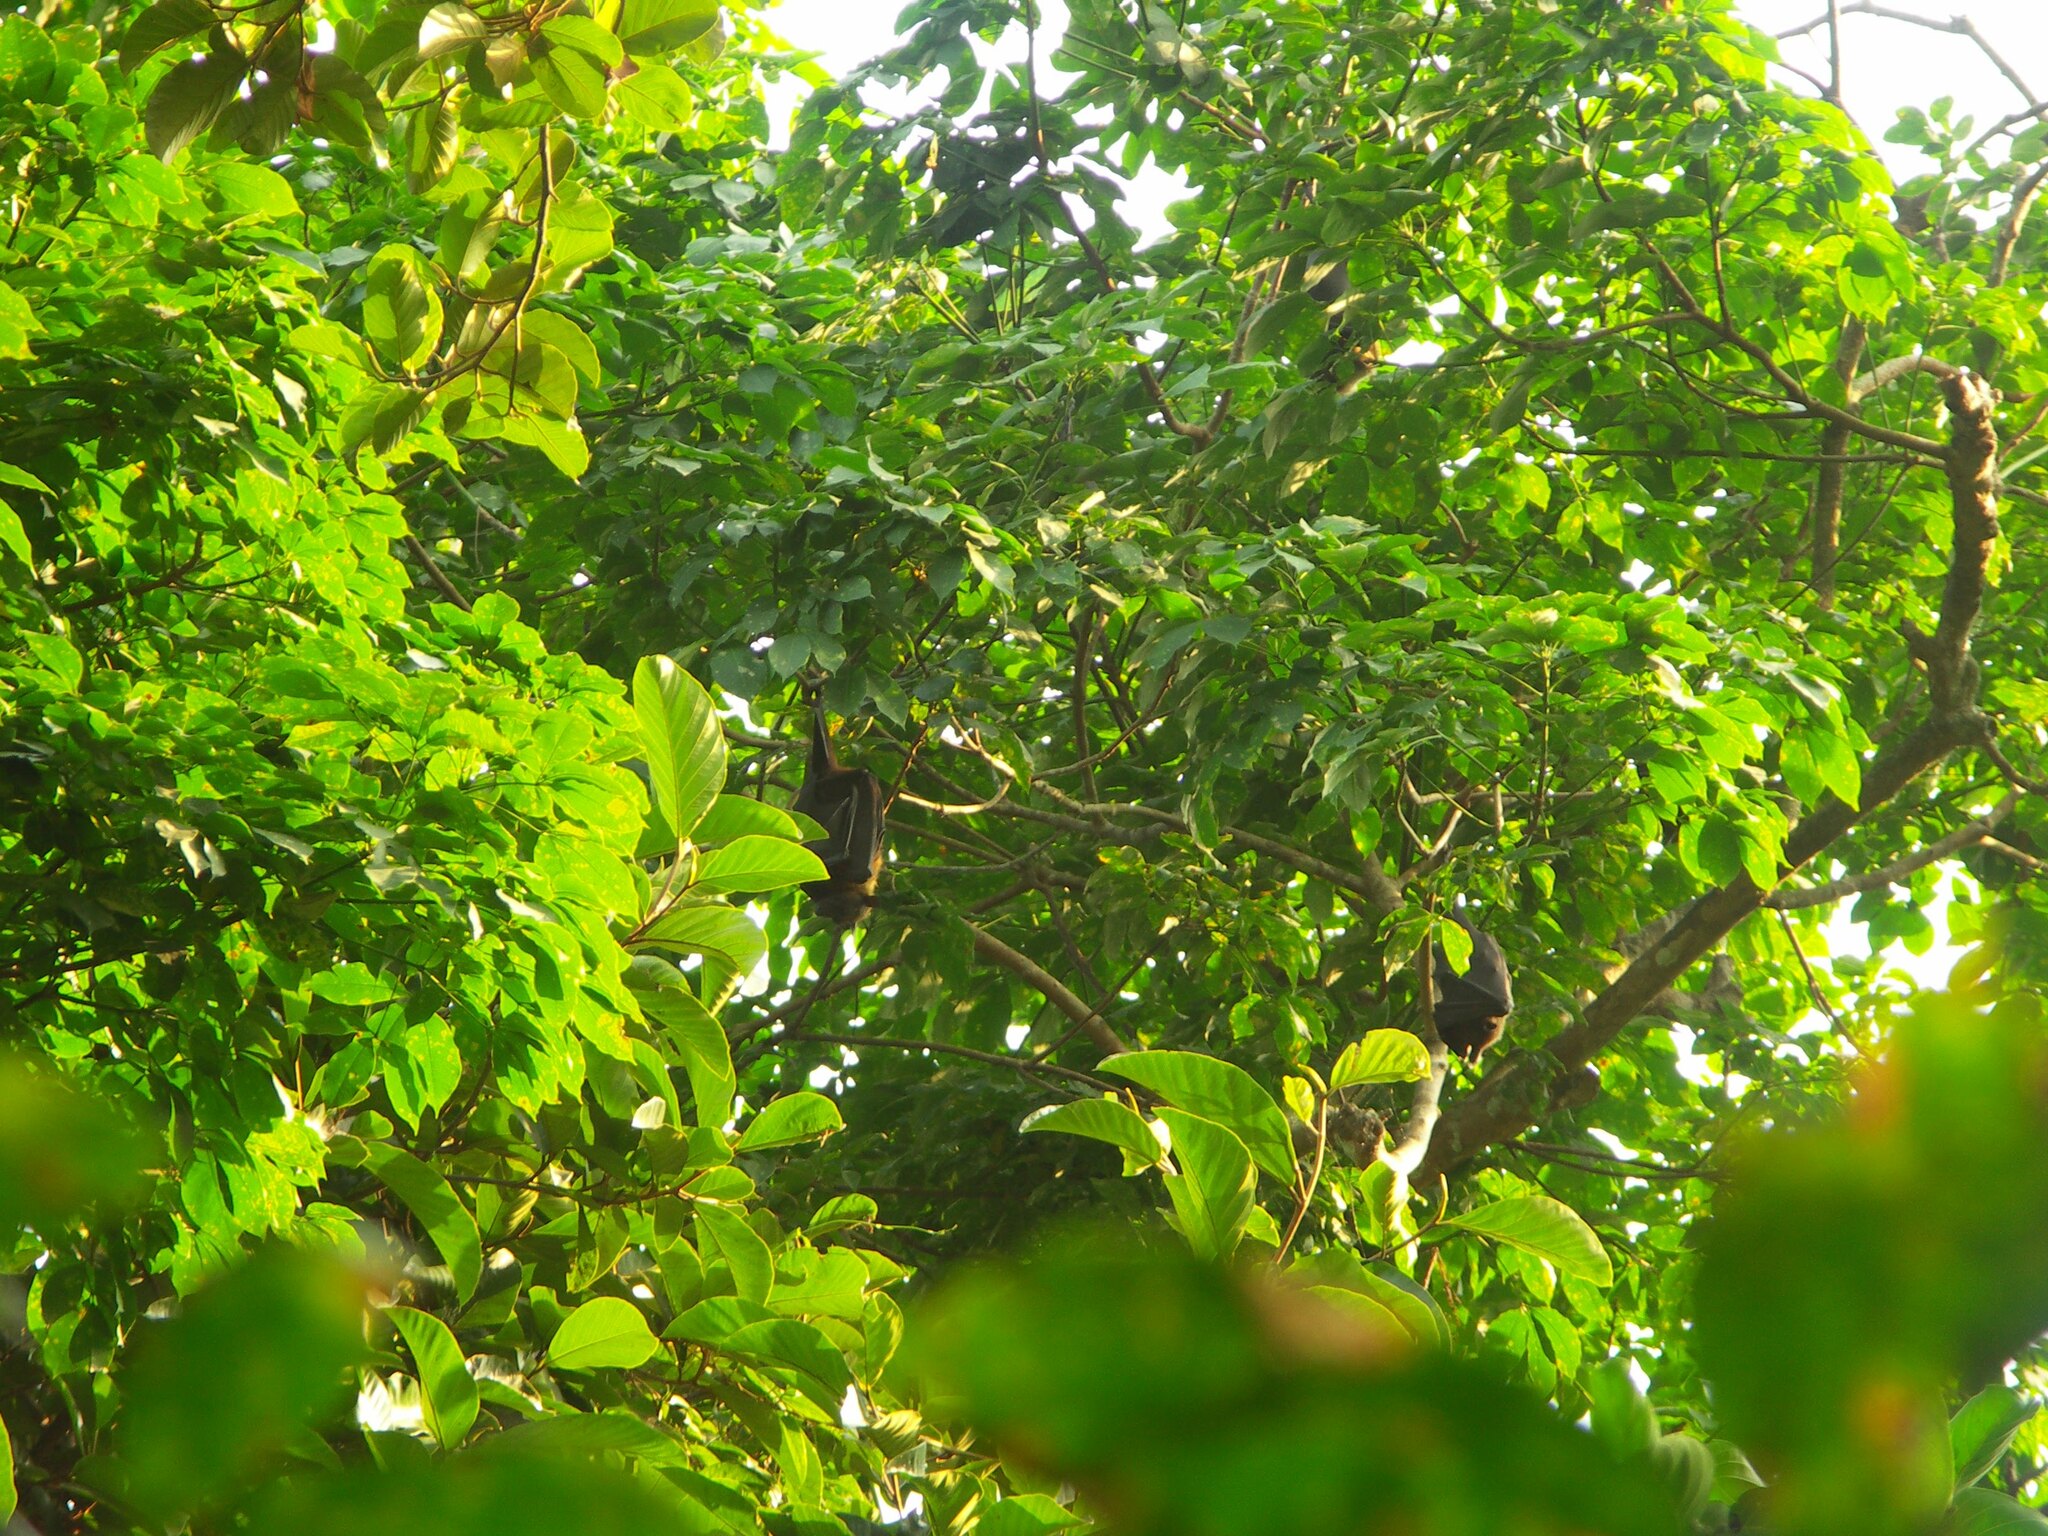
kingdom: Animalia
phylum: Chordata
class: Mammalia
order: Chiroptera
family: Pteropodidae
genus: Pteropus
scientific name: Pteropus vampyrus
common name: Large flying fox
